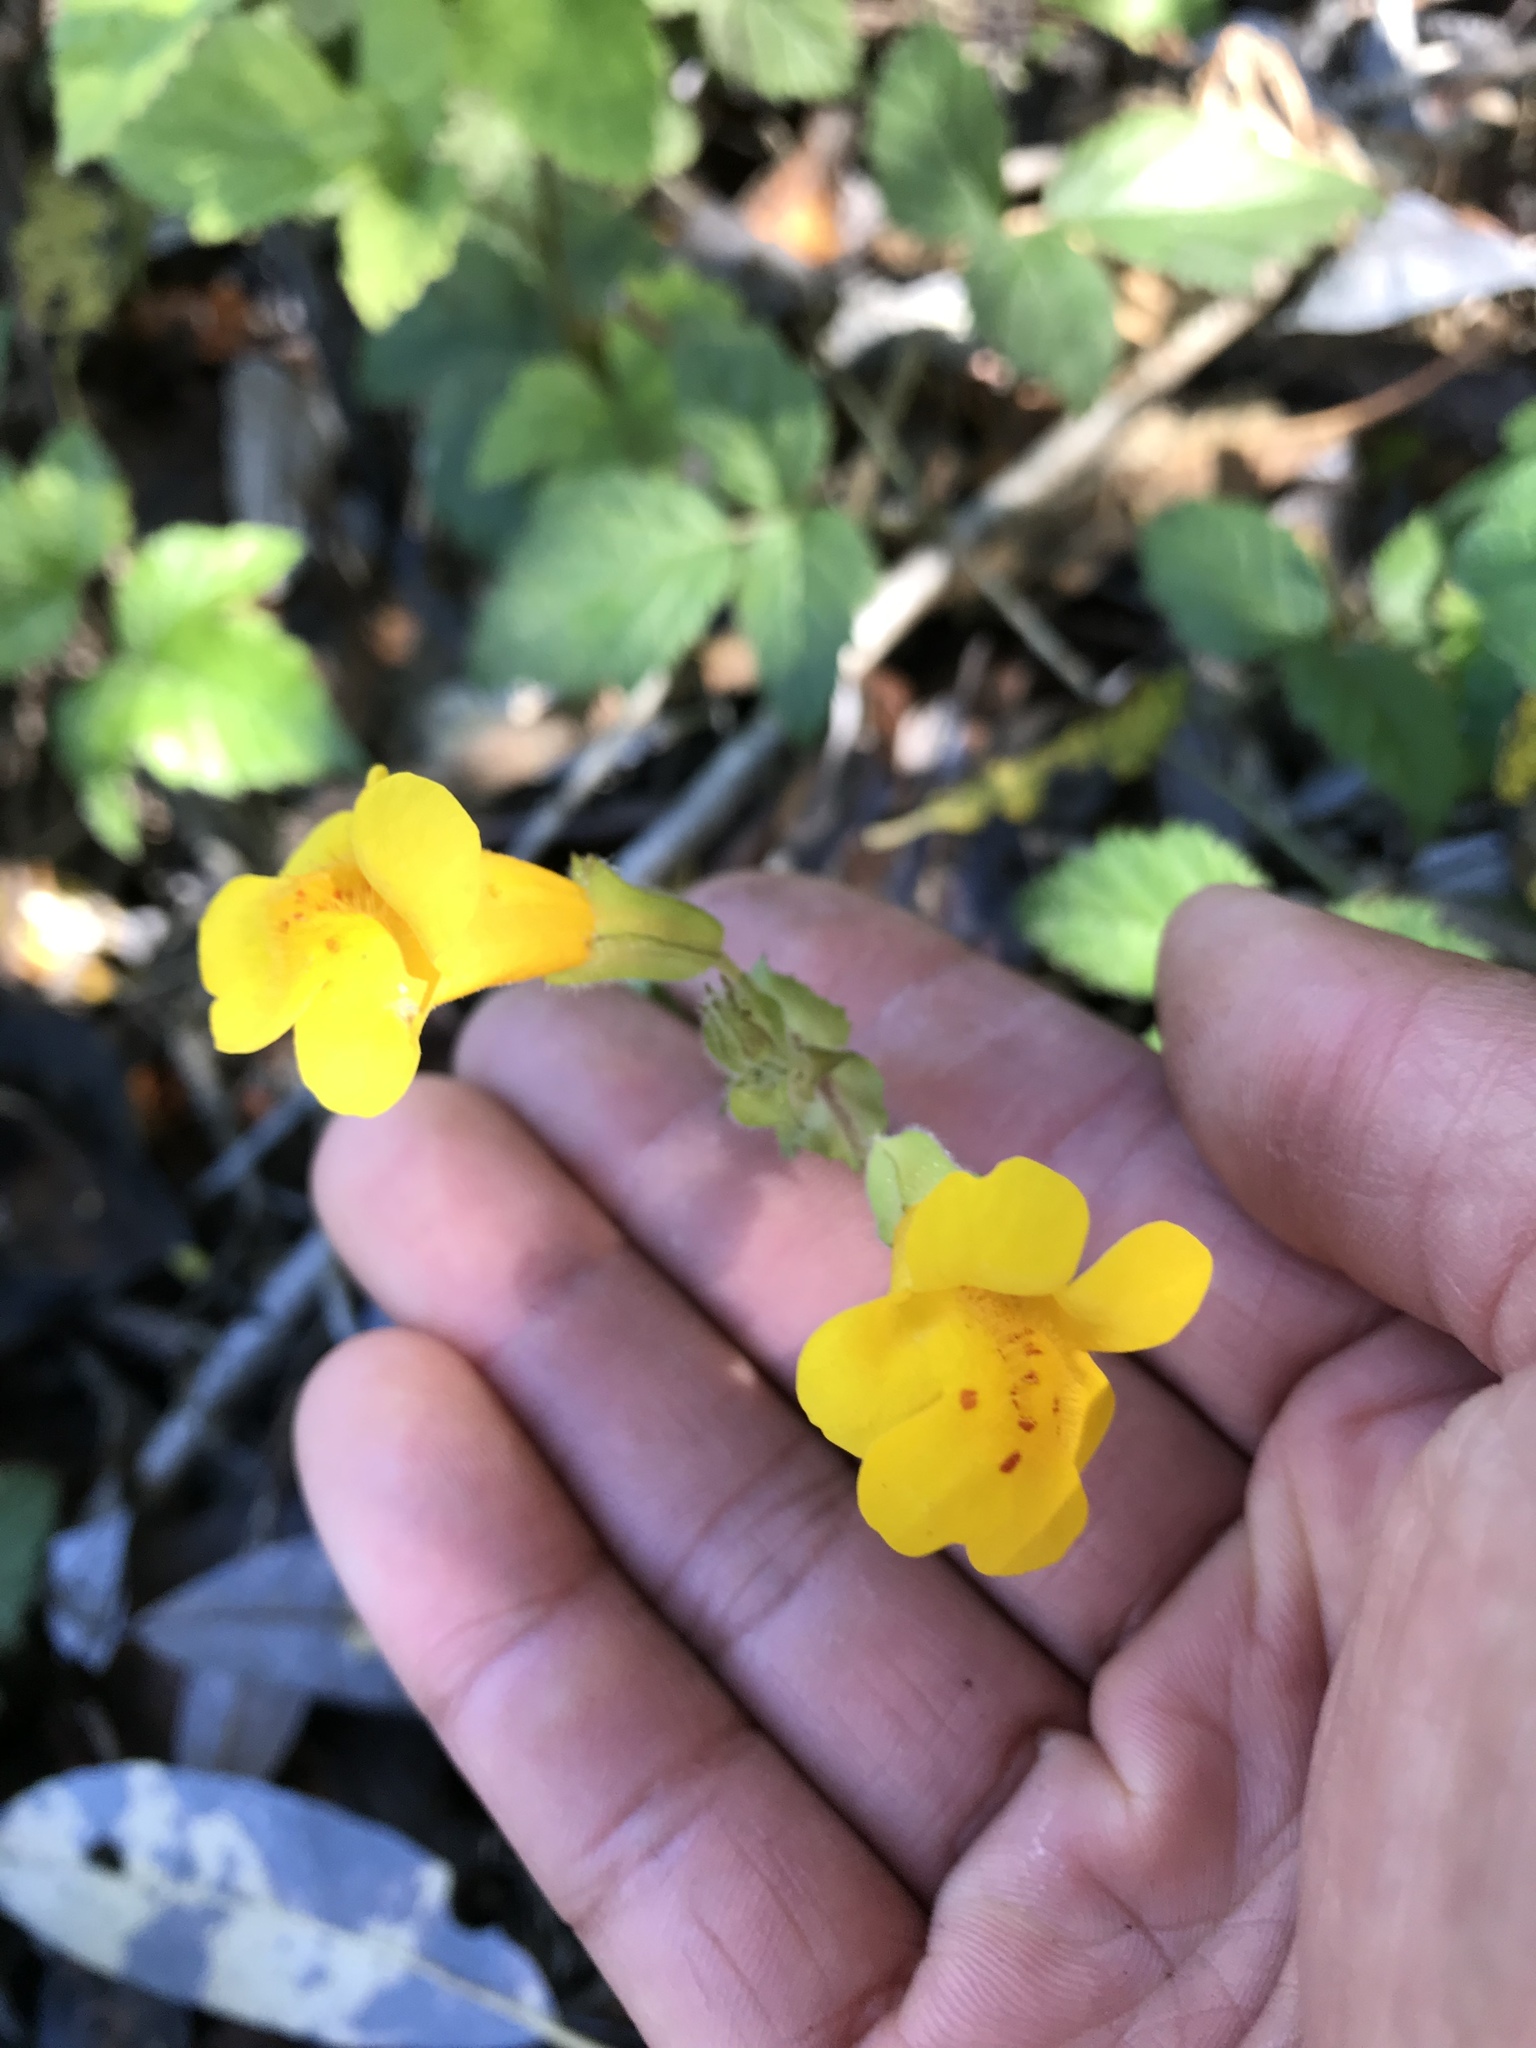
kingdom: Plantae
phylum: Tracheophyta
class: Magnoliopsida
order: Lamiales
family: Phrymaceae
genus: Erythranthe
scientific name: Erythranthe guttata
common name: Monkeyflower
